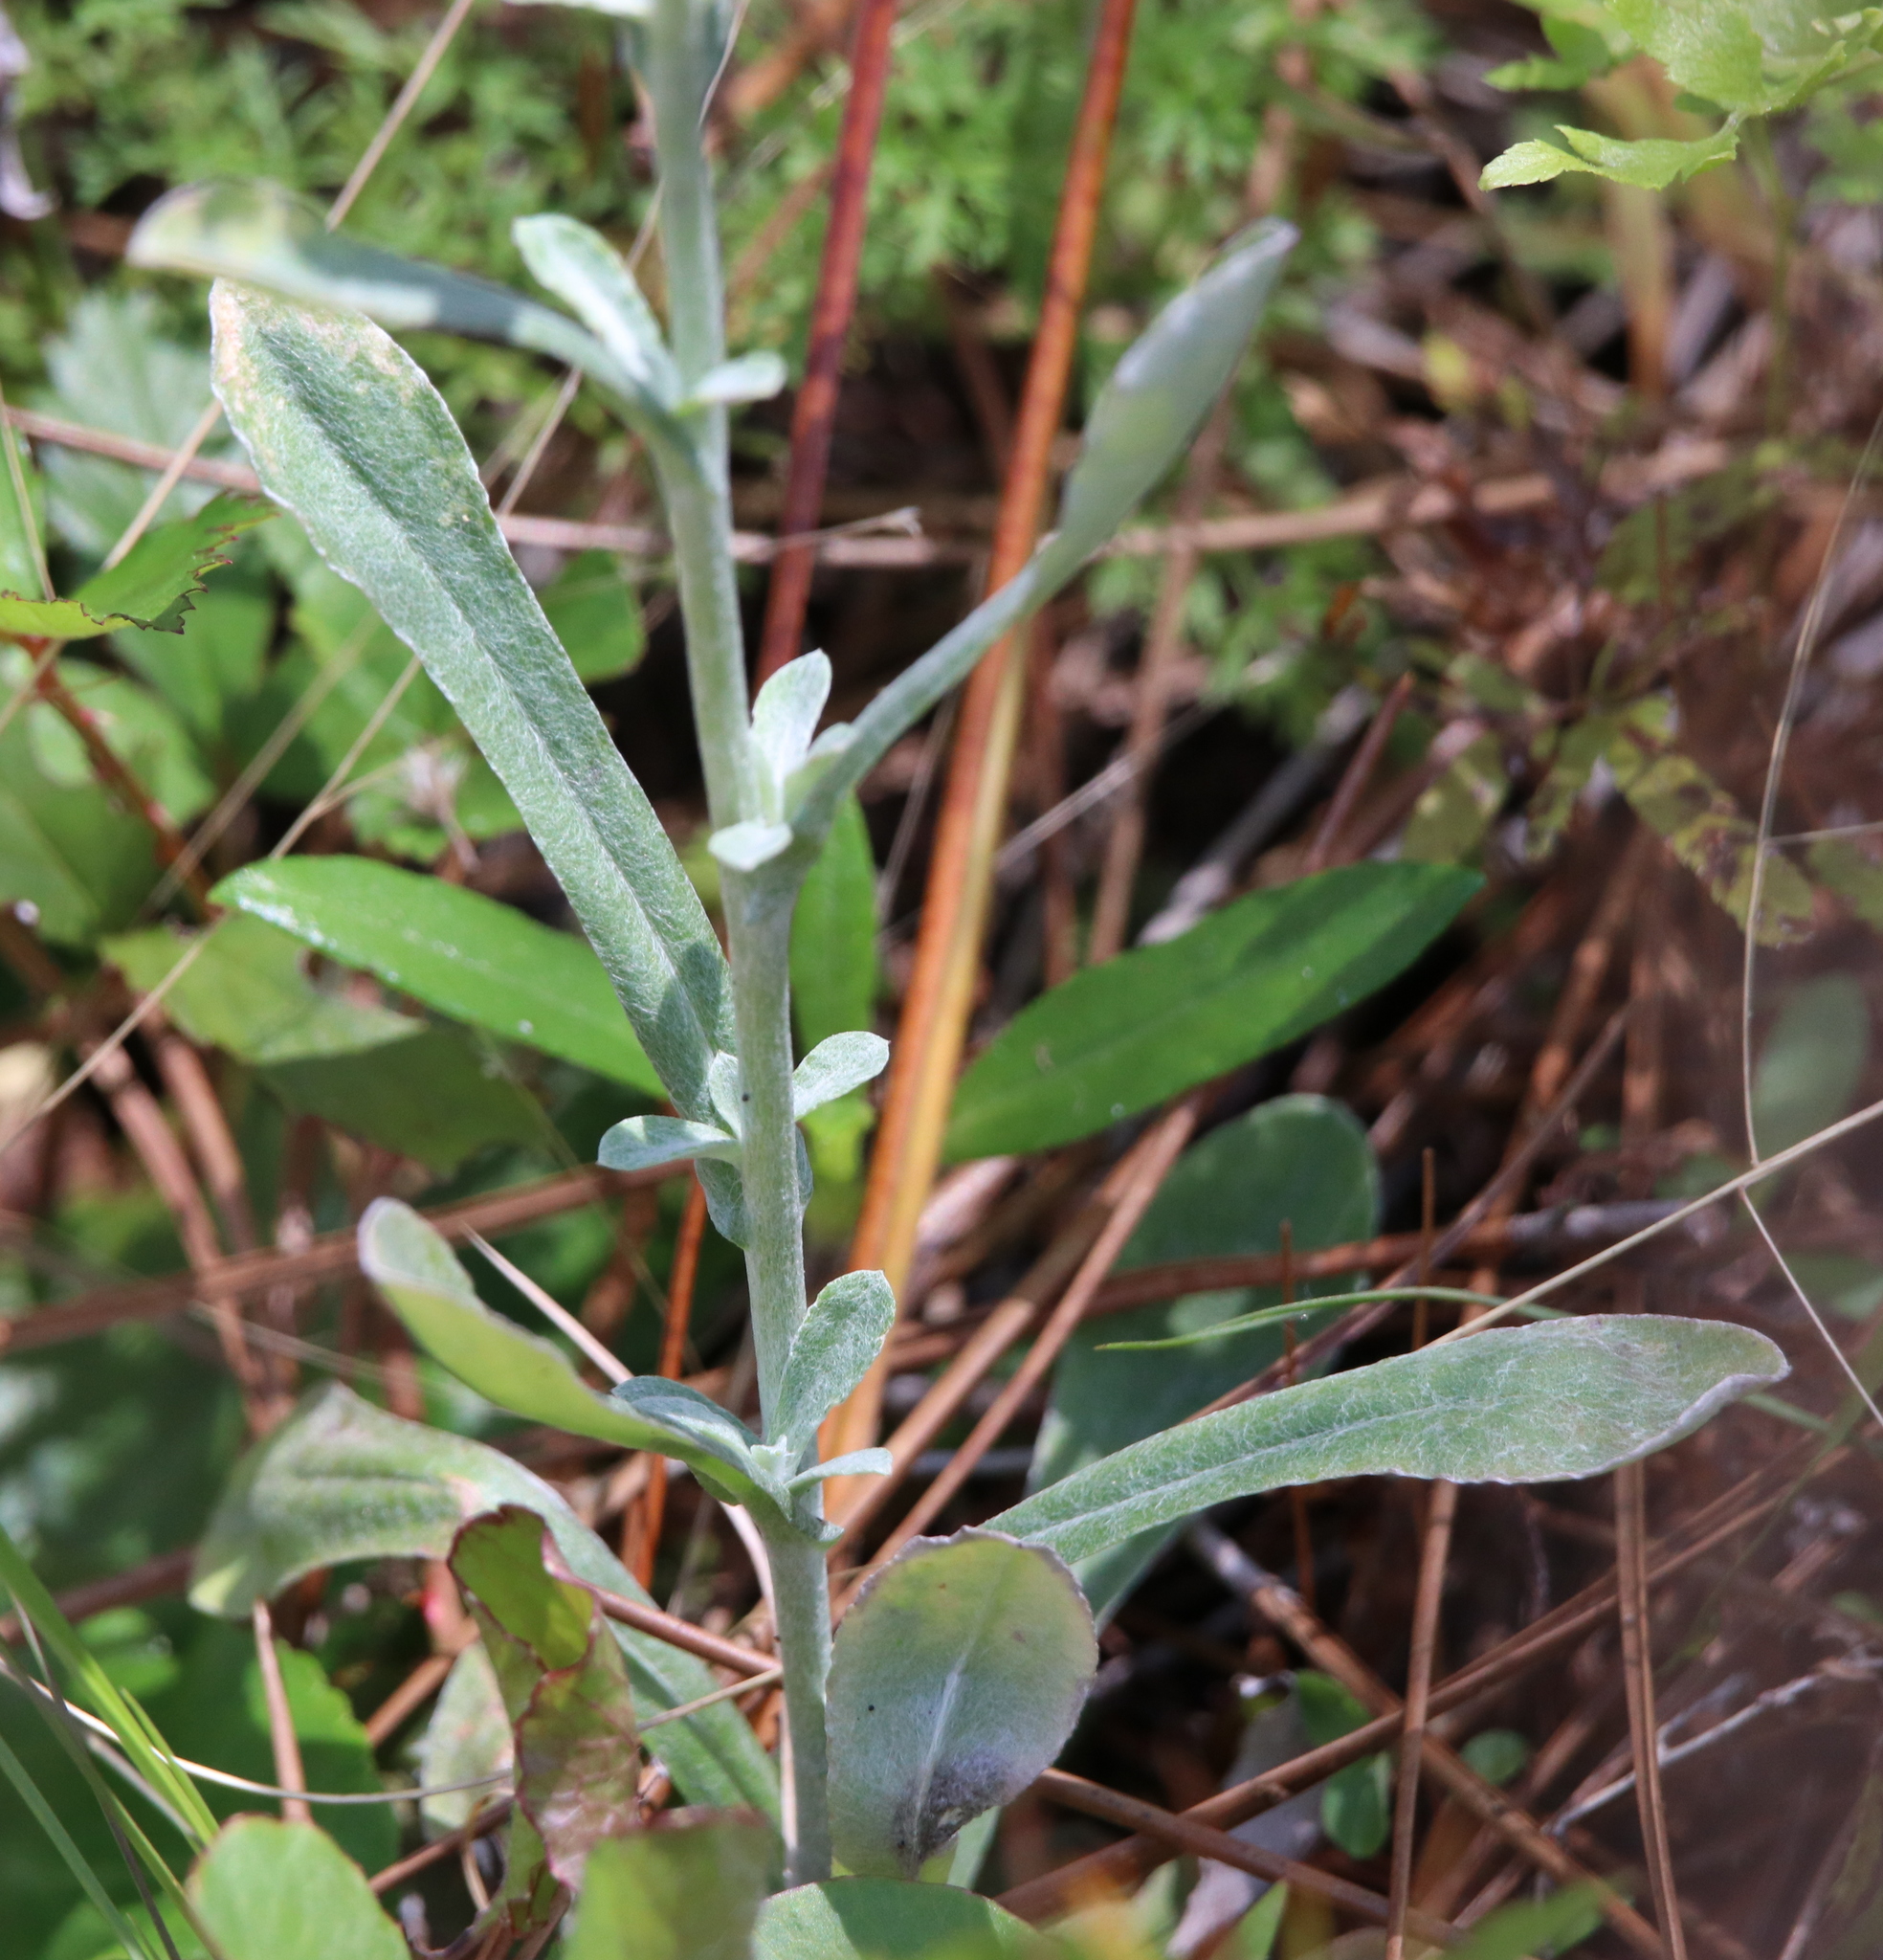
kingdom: Plantae
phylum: Tracheophyta
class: Magnoliopsida
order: Asterales
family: Asteraceae
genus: Gamochaeta
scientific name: Gamochaeta purpurea
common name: Purple cudweed
